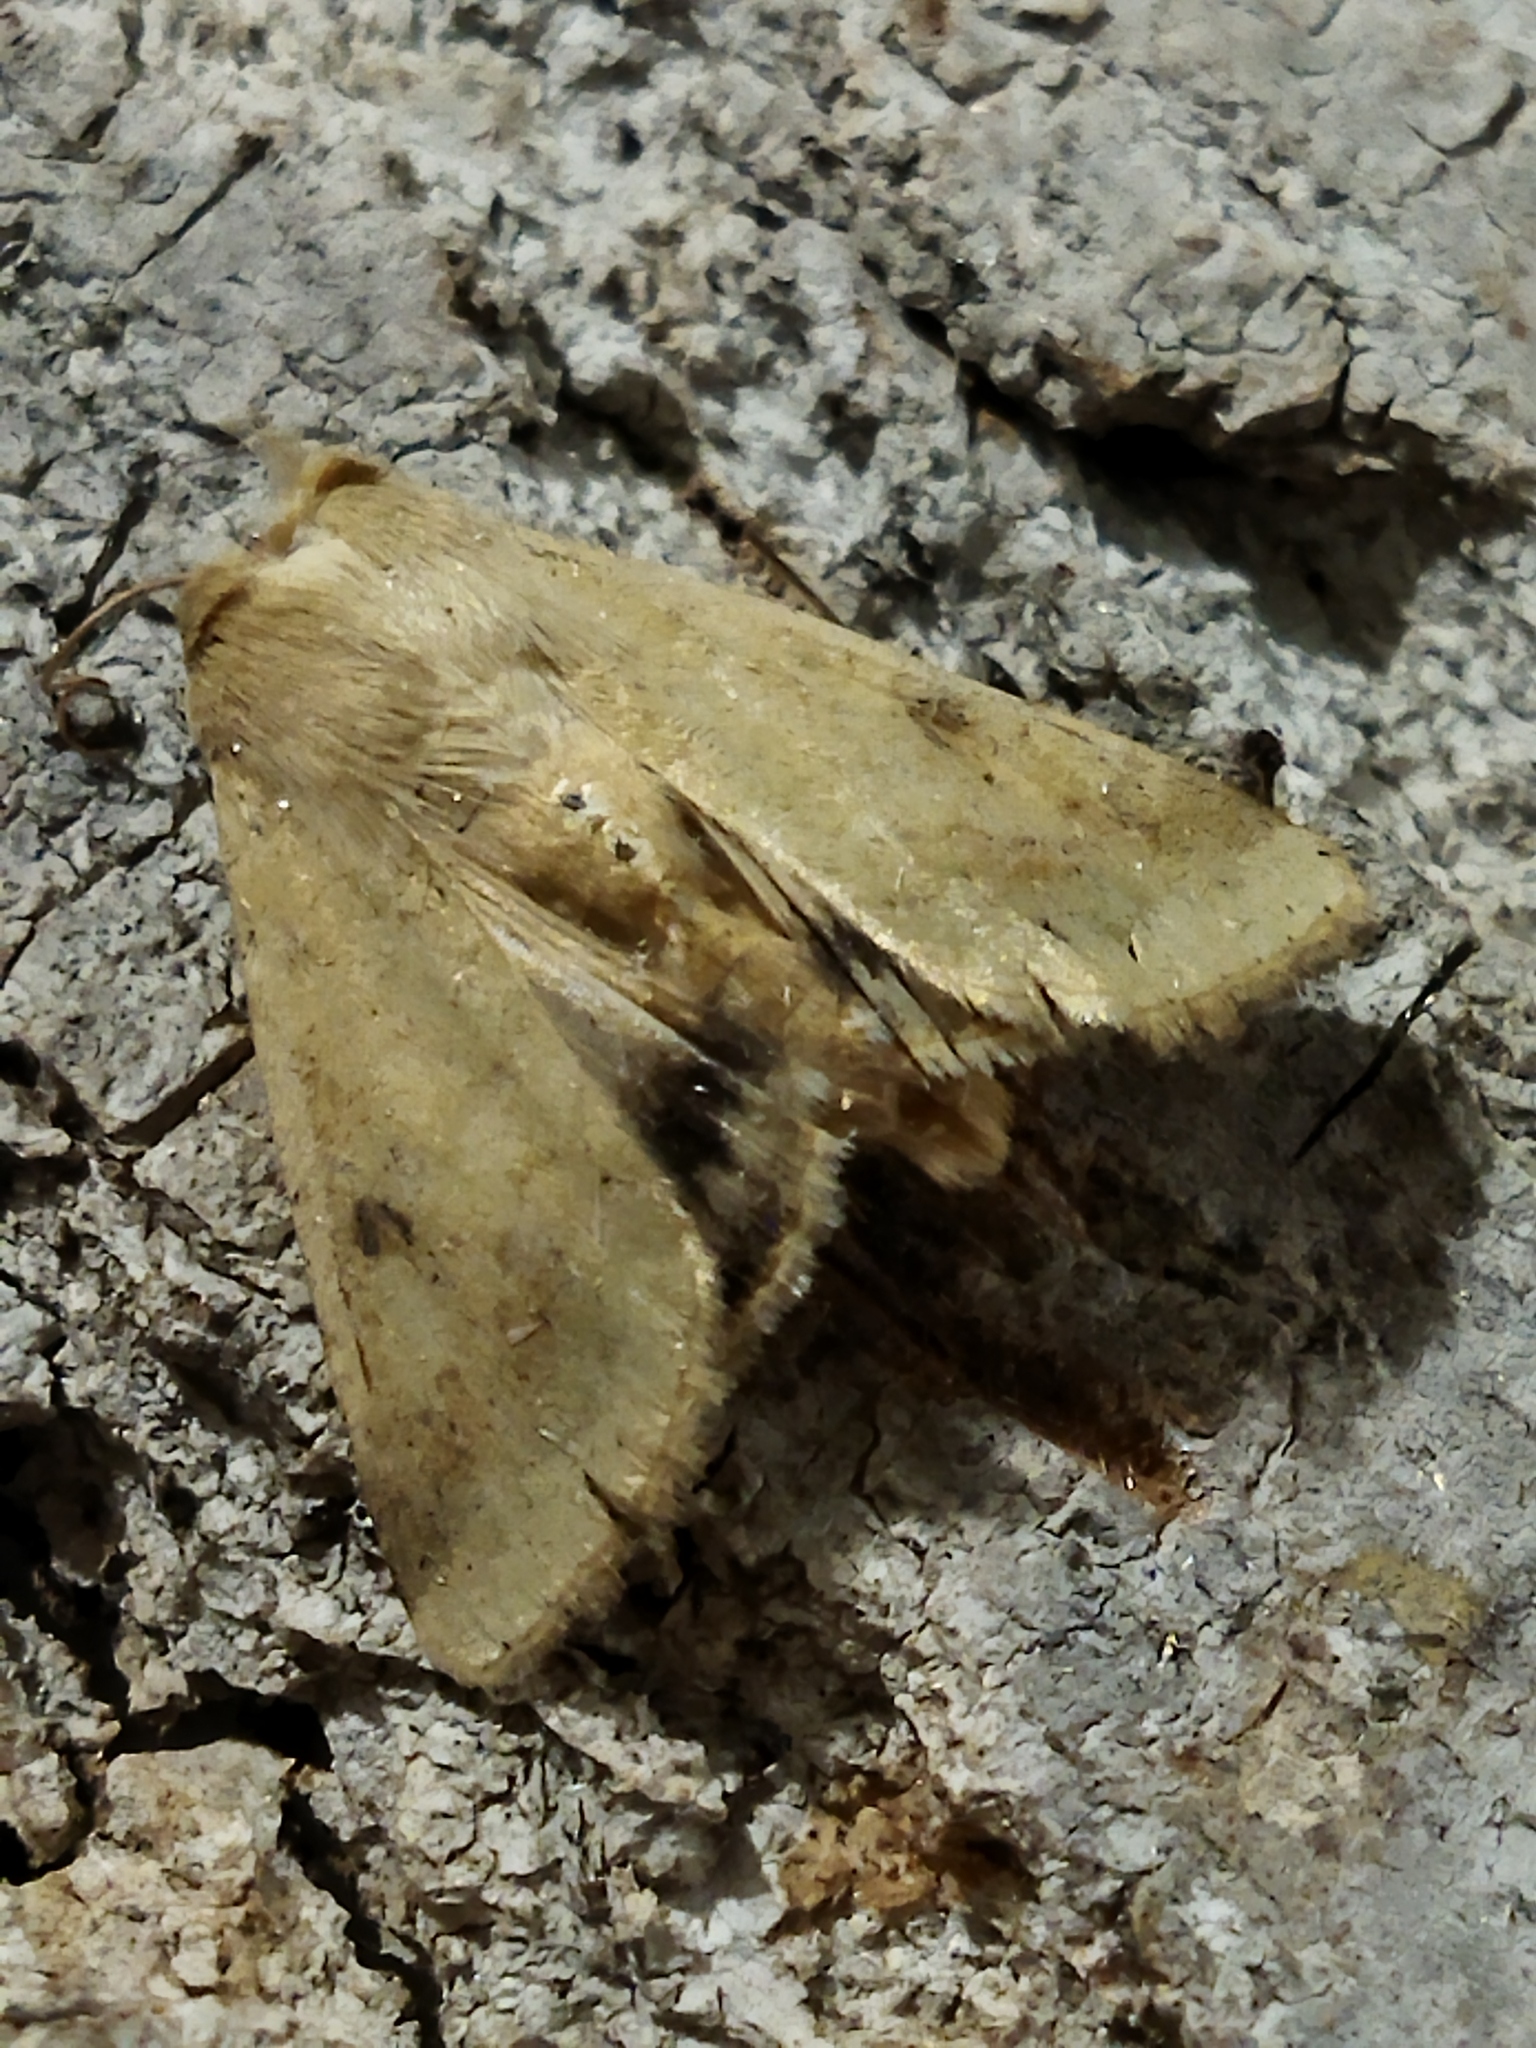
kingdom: Animalia
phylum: Arthropoda
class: Insecta
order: Lepidoptera
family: Noctuidae
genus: Helicoverpa
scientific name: Helicoverpa armigera
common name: Cotton bollworm
